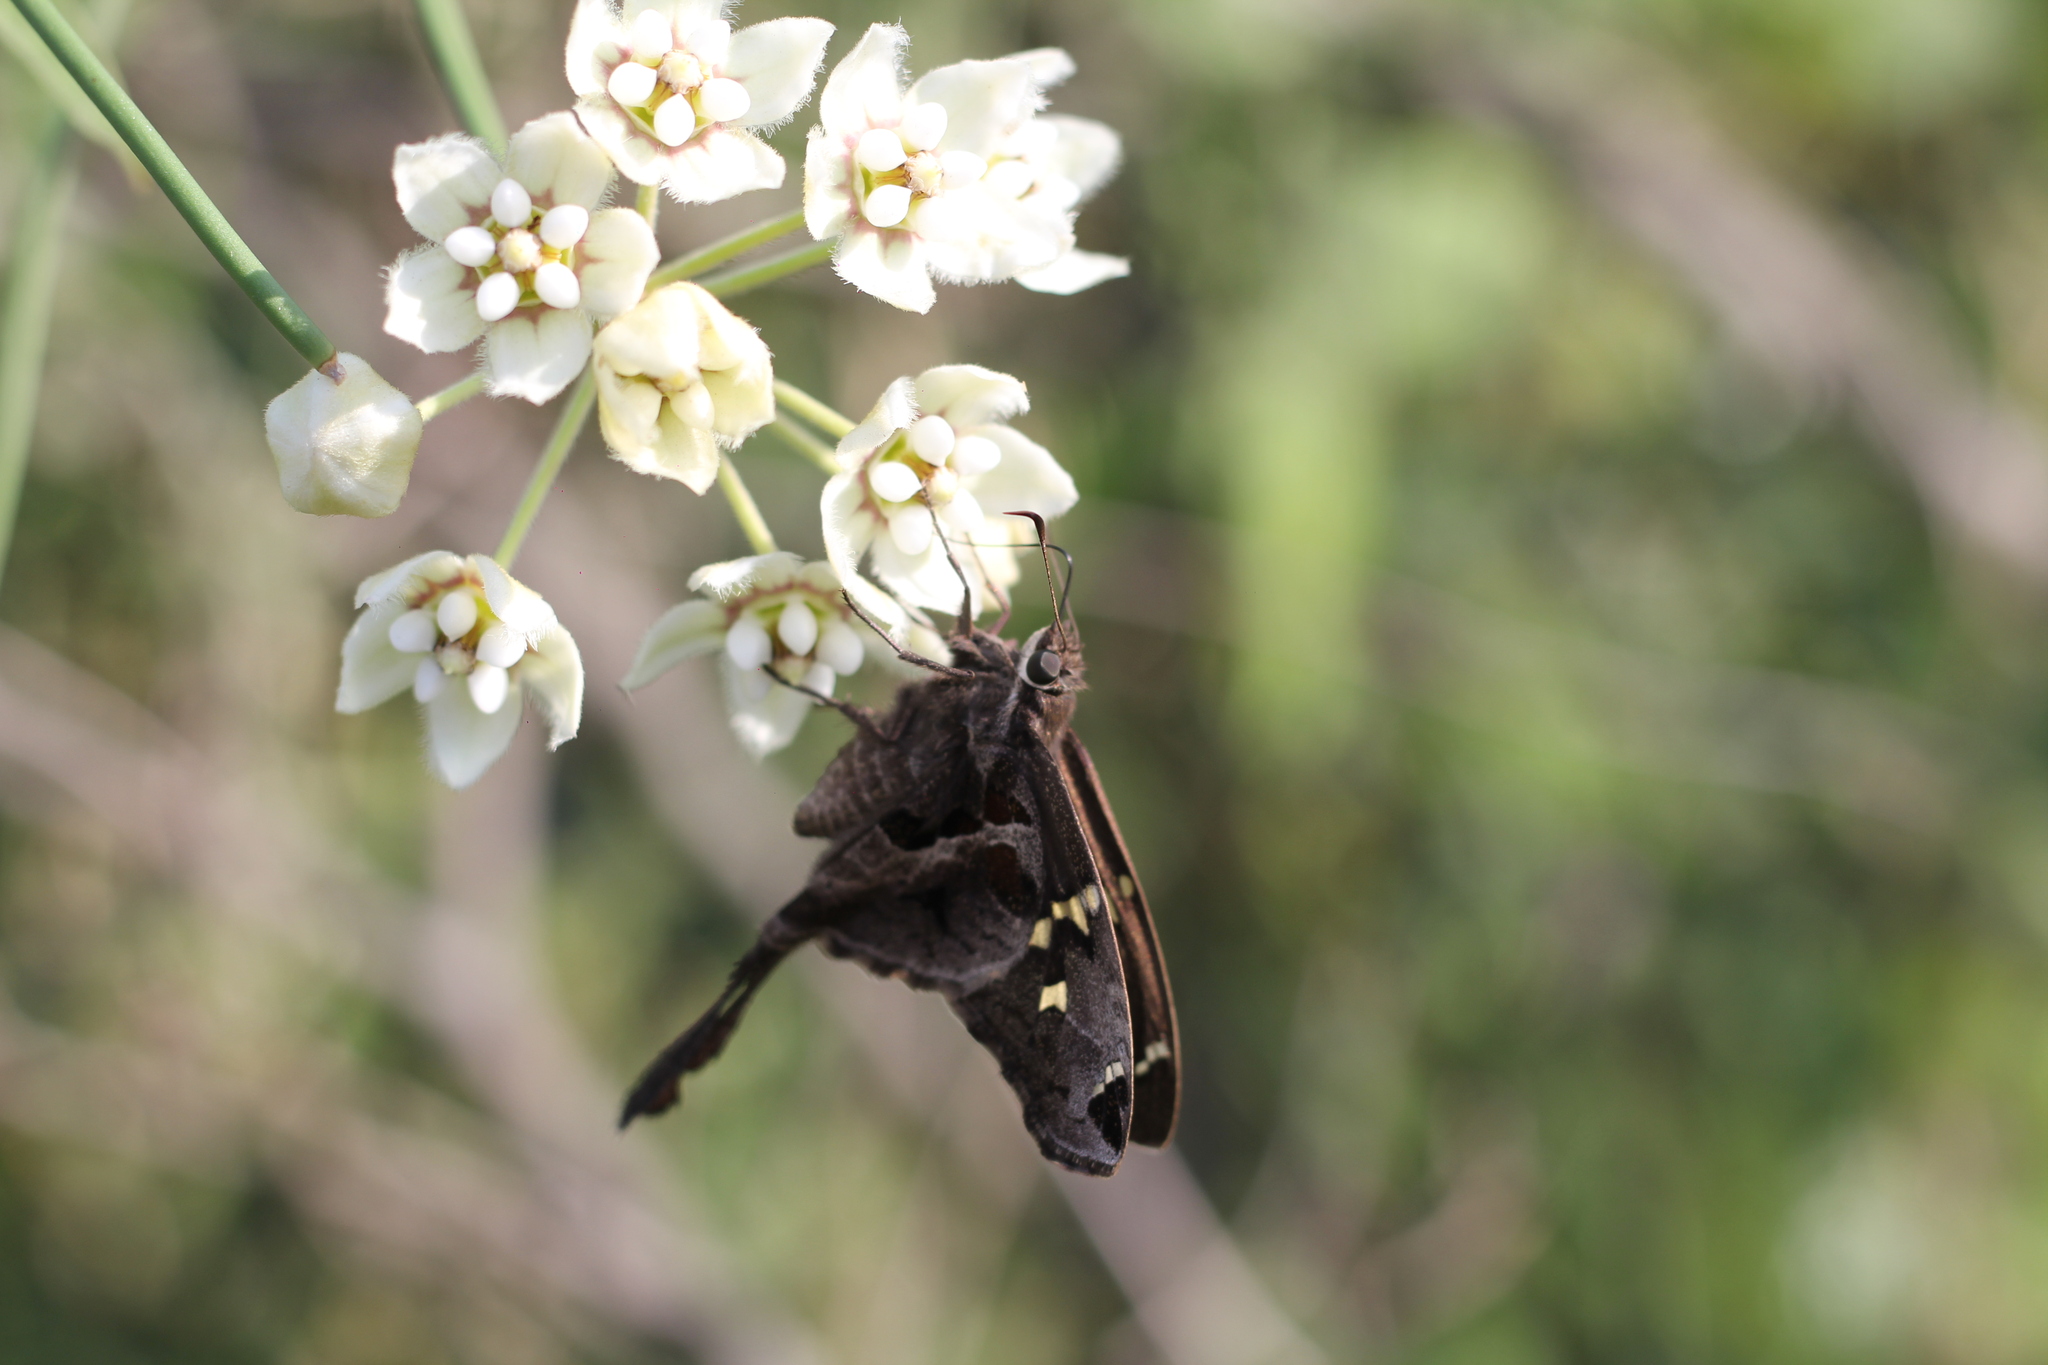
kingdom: Animalia
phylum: Arthropoda
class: Insecta
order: Lepidoptera
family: Hesperiidae
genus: Chioides
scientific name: Chioides catillus
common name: Silverbanded skipper
